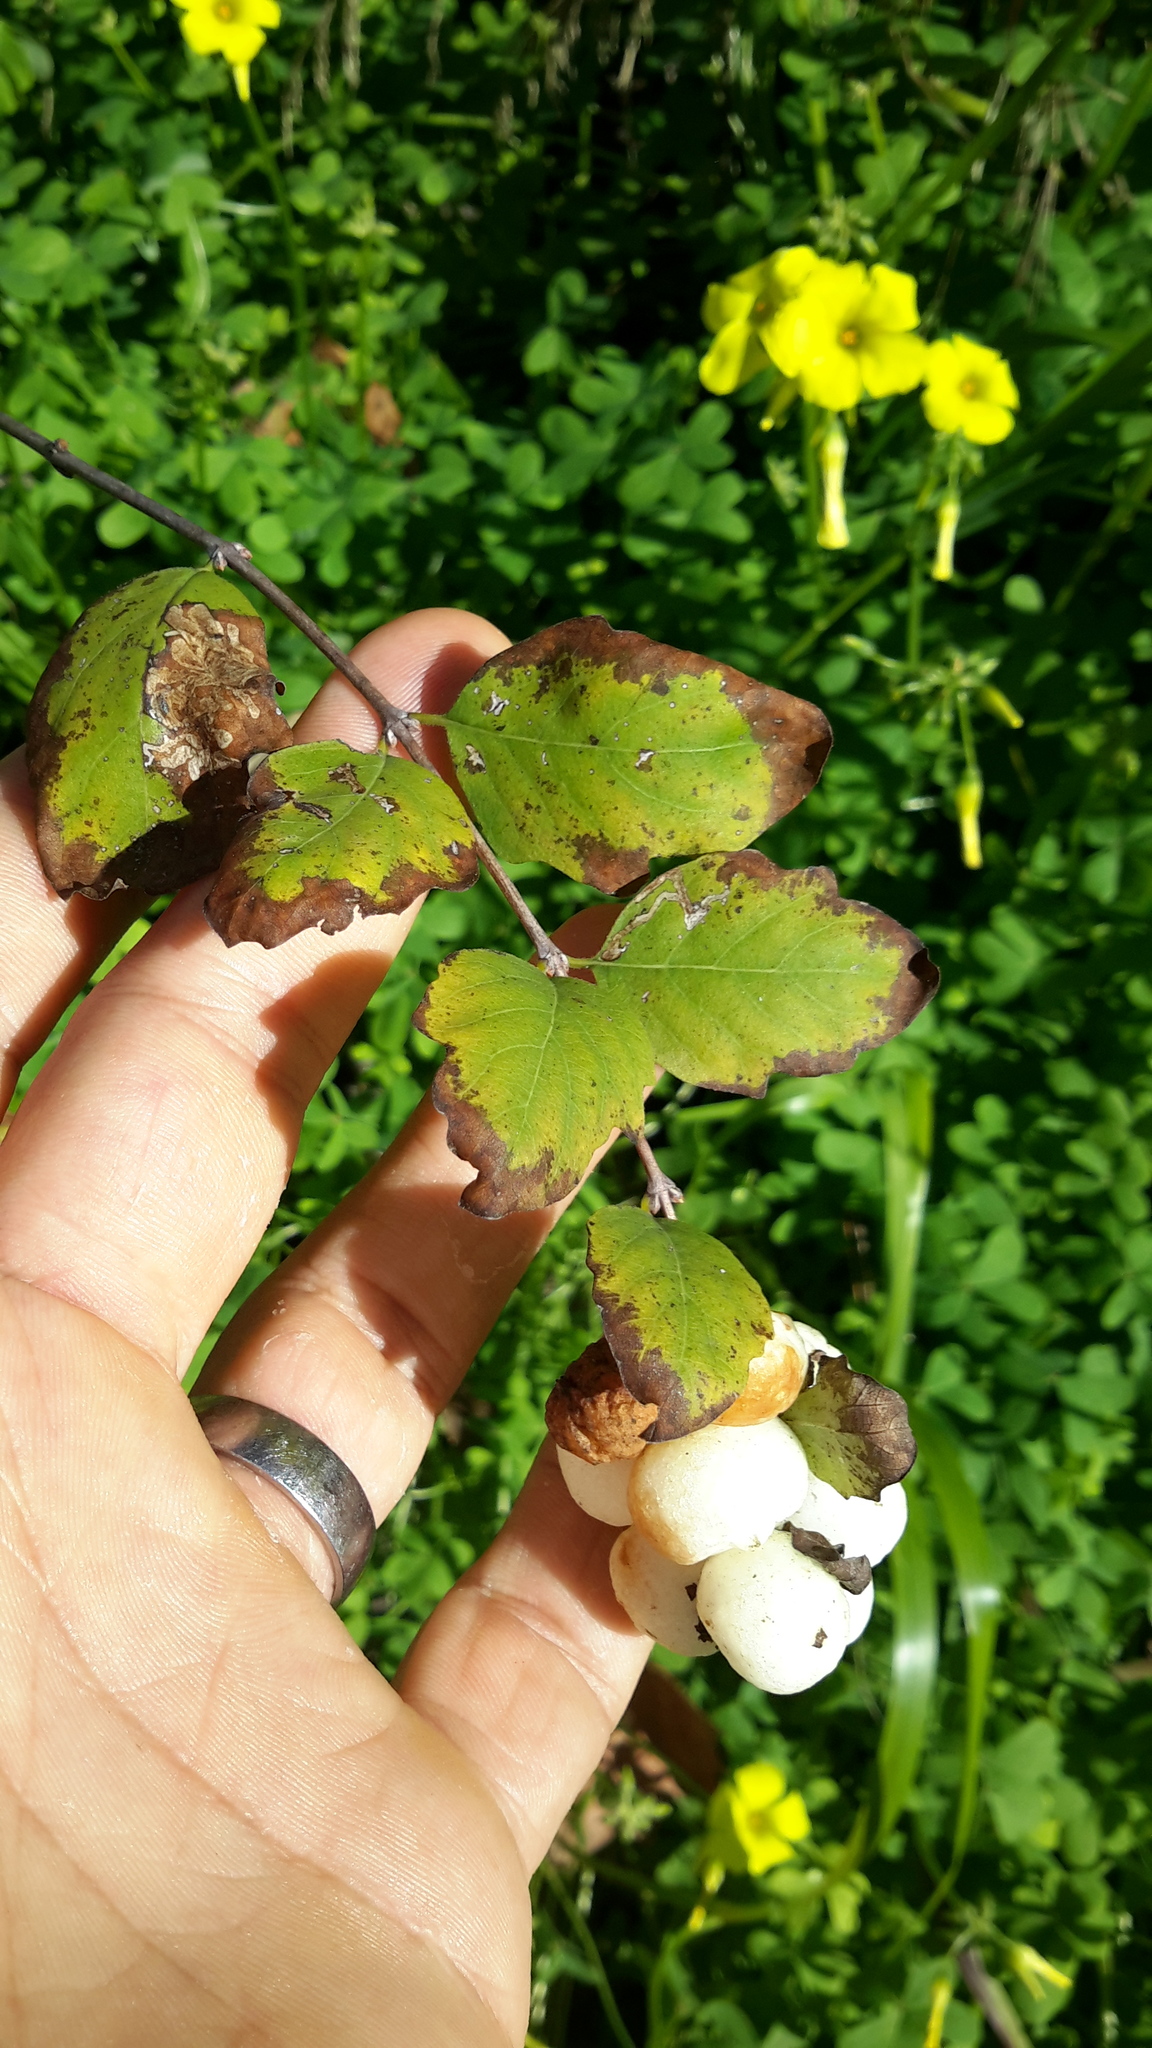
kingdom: Plantae
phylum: Tracheophyta
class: Magnoliopsida
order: Dipsacales
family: Caprifoliaceae
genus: Symphoricarpos
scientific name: Symphoricarpos albus
